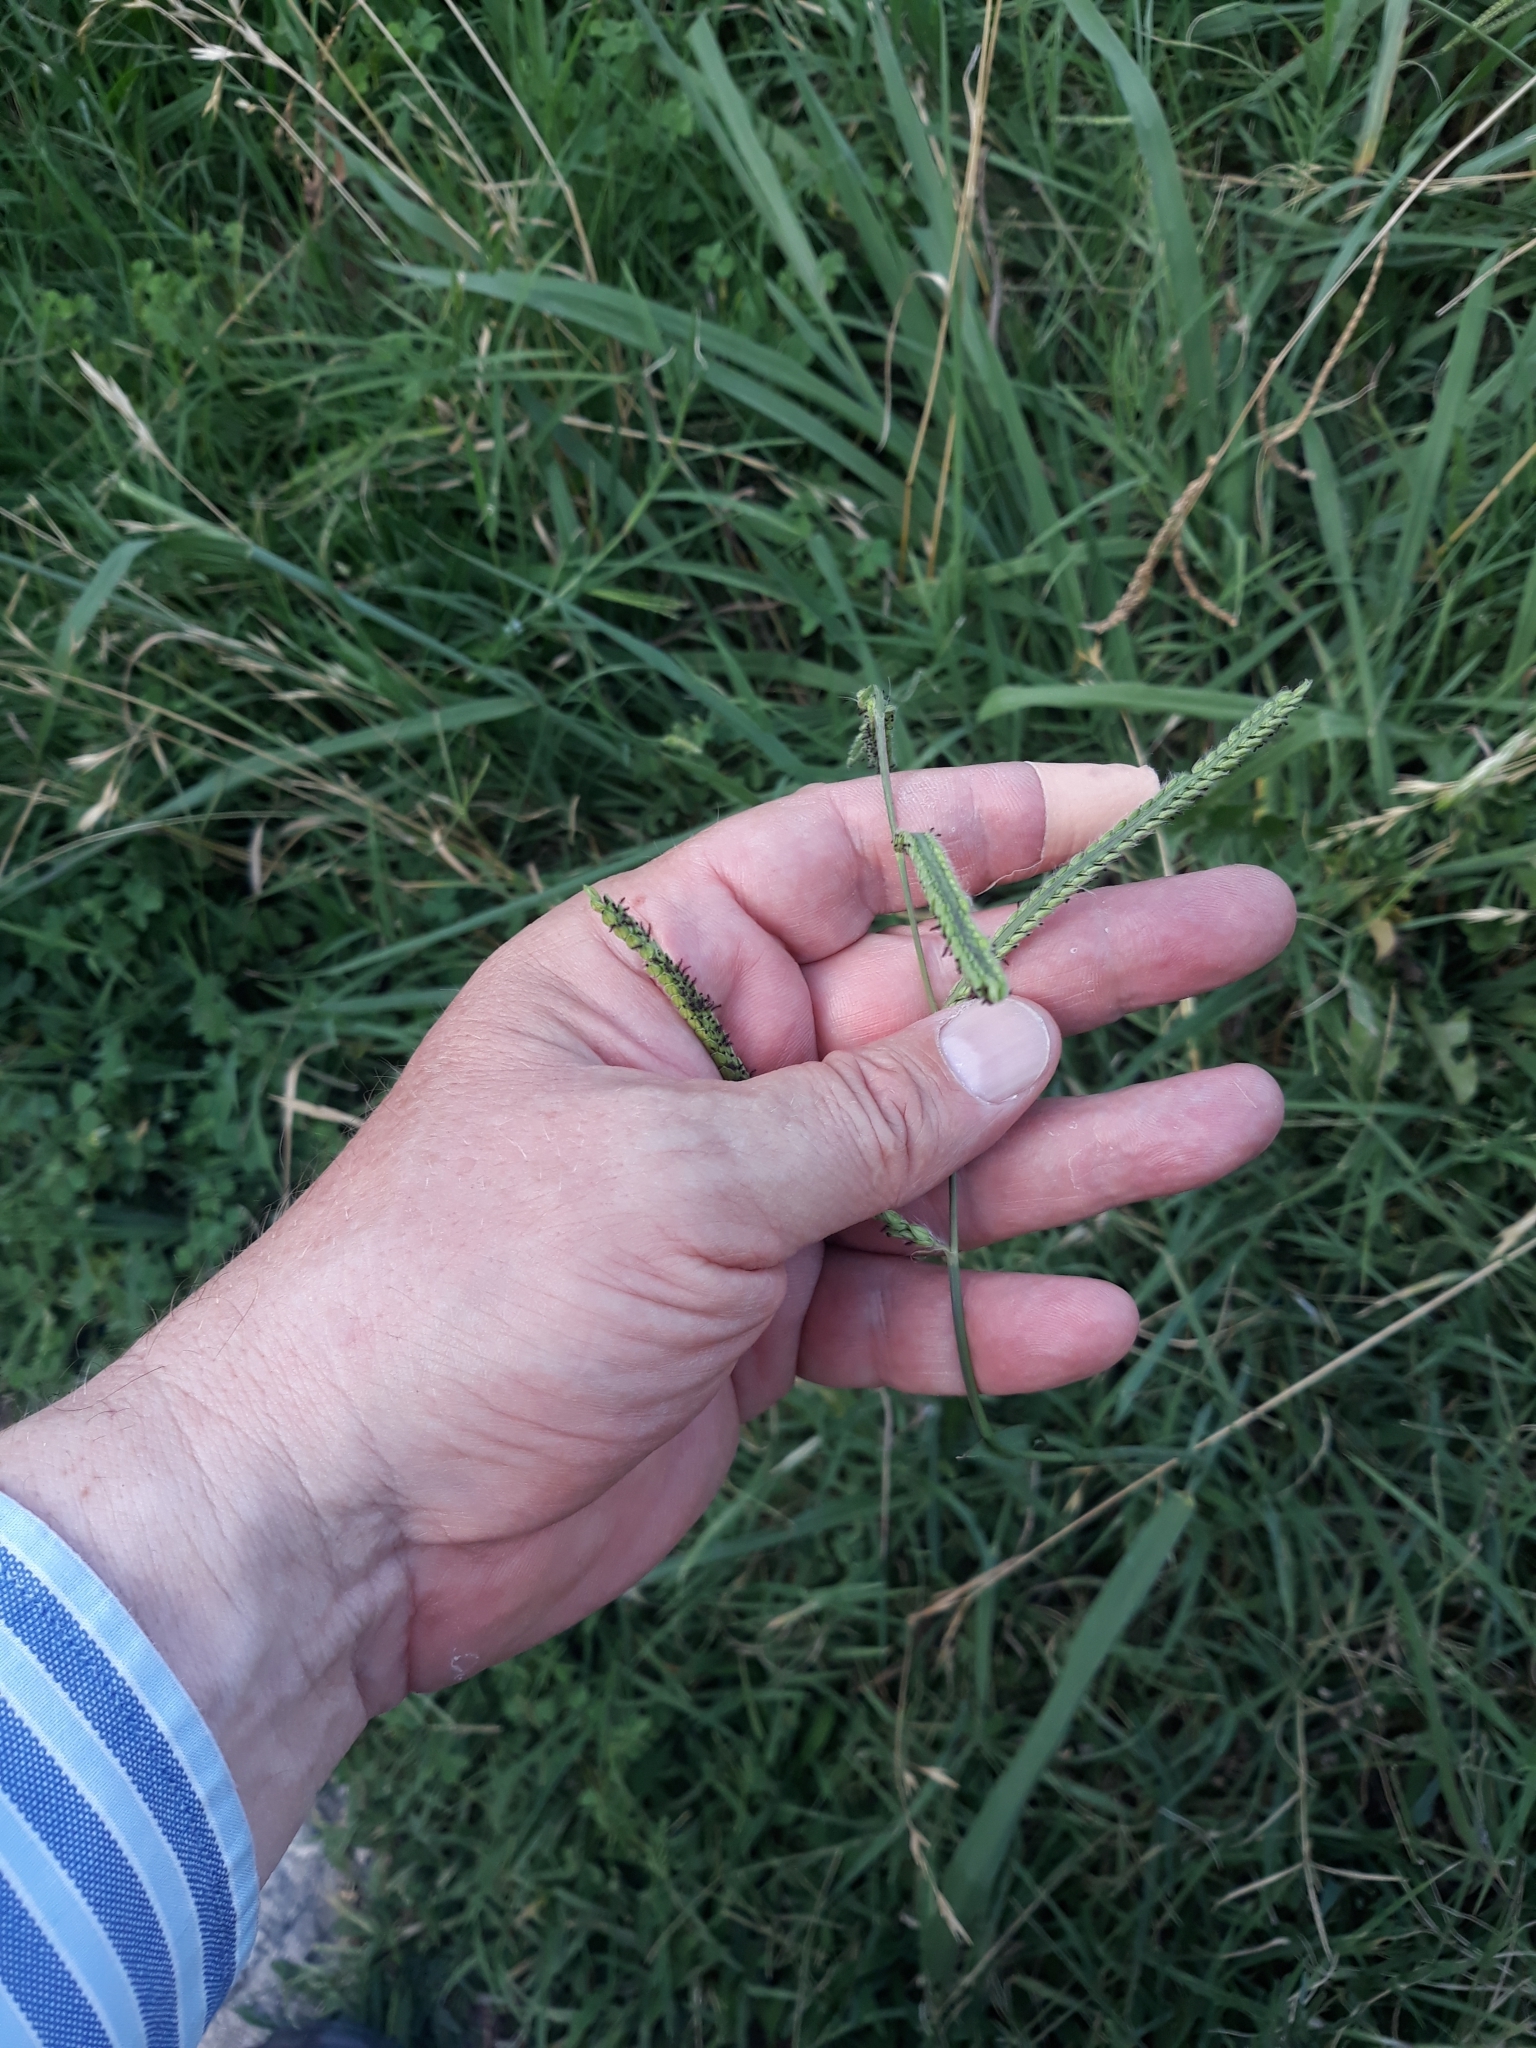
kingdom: Plantae
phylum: Tracheophyta
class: Liliopsida
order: Poales
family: Poaceae
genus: Paspalum
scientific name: Paspalum dilatatum
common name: Dallisgrass
